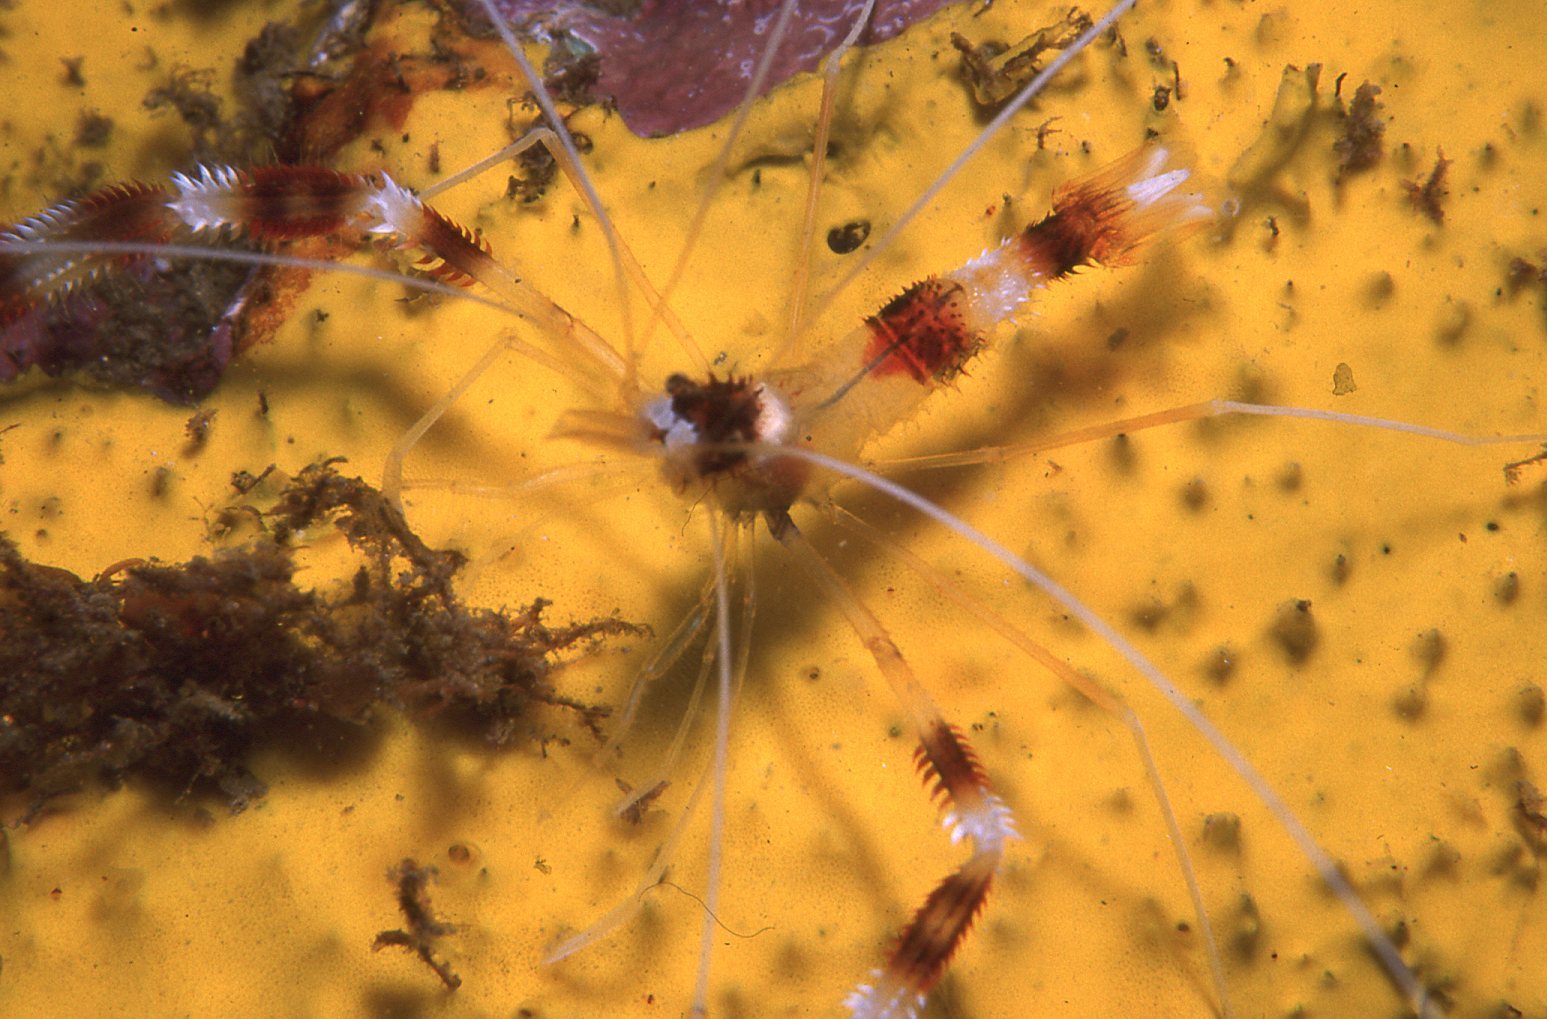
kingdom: Animalia
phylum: Arthropoda
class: Malacostraca
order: Decapoda
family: Stenopodidae
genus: Stenopus
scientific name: Stenopus hispidus
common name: Banded coral shrimp
